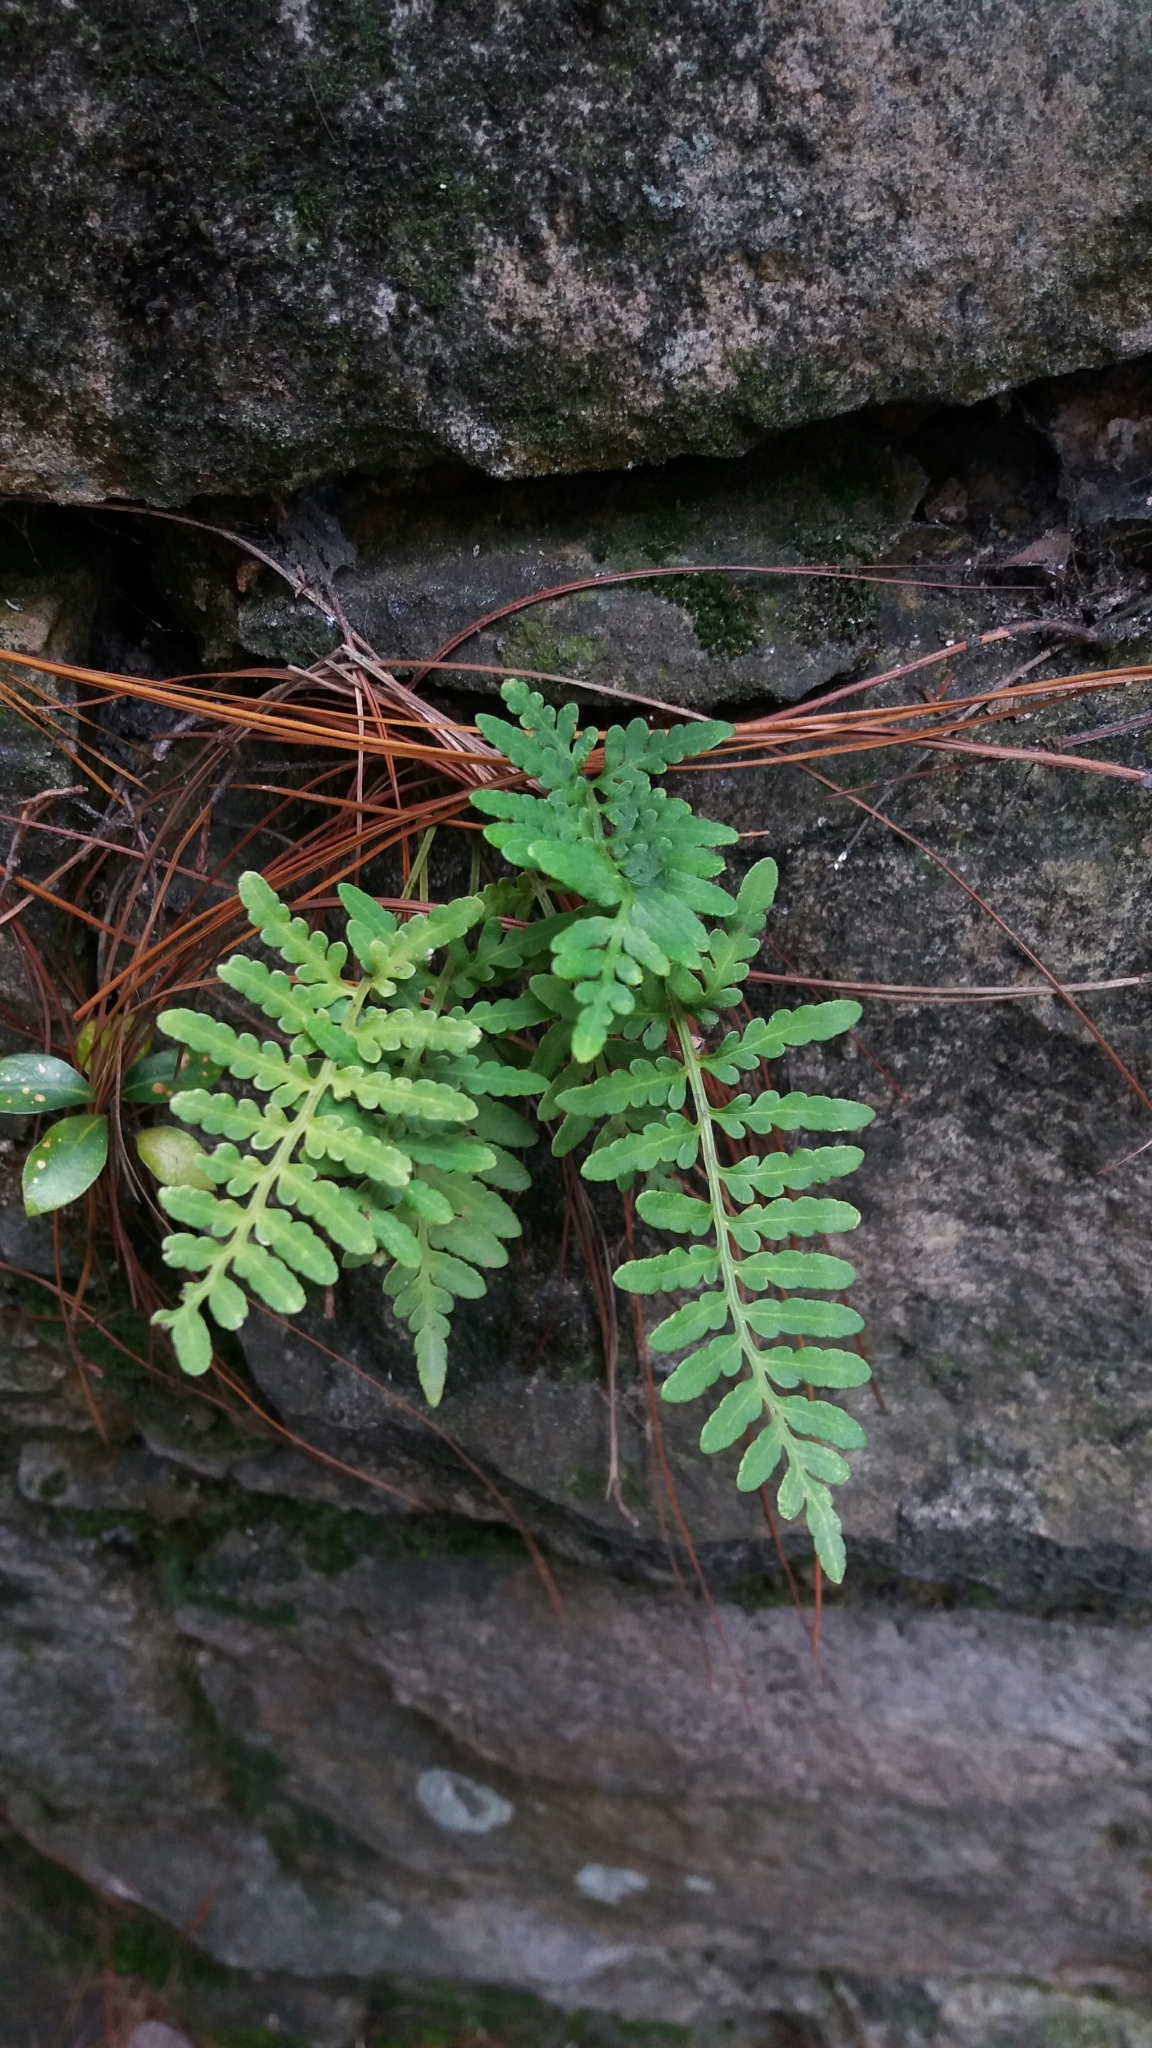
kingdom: Plantae
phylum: Tracheophyta
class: Polypodiopsida
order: Polypodiales
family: Polypodiaceae
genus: Pleopeltis
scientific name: Pleopeltis murora
